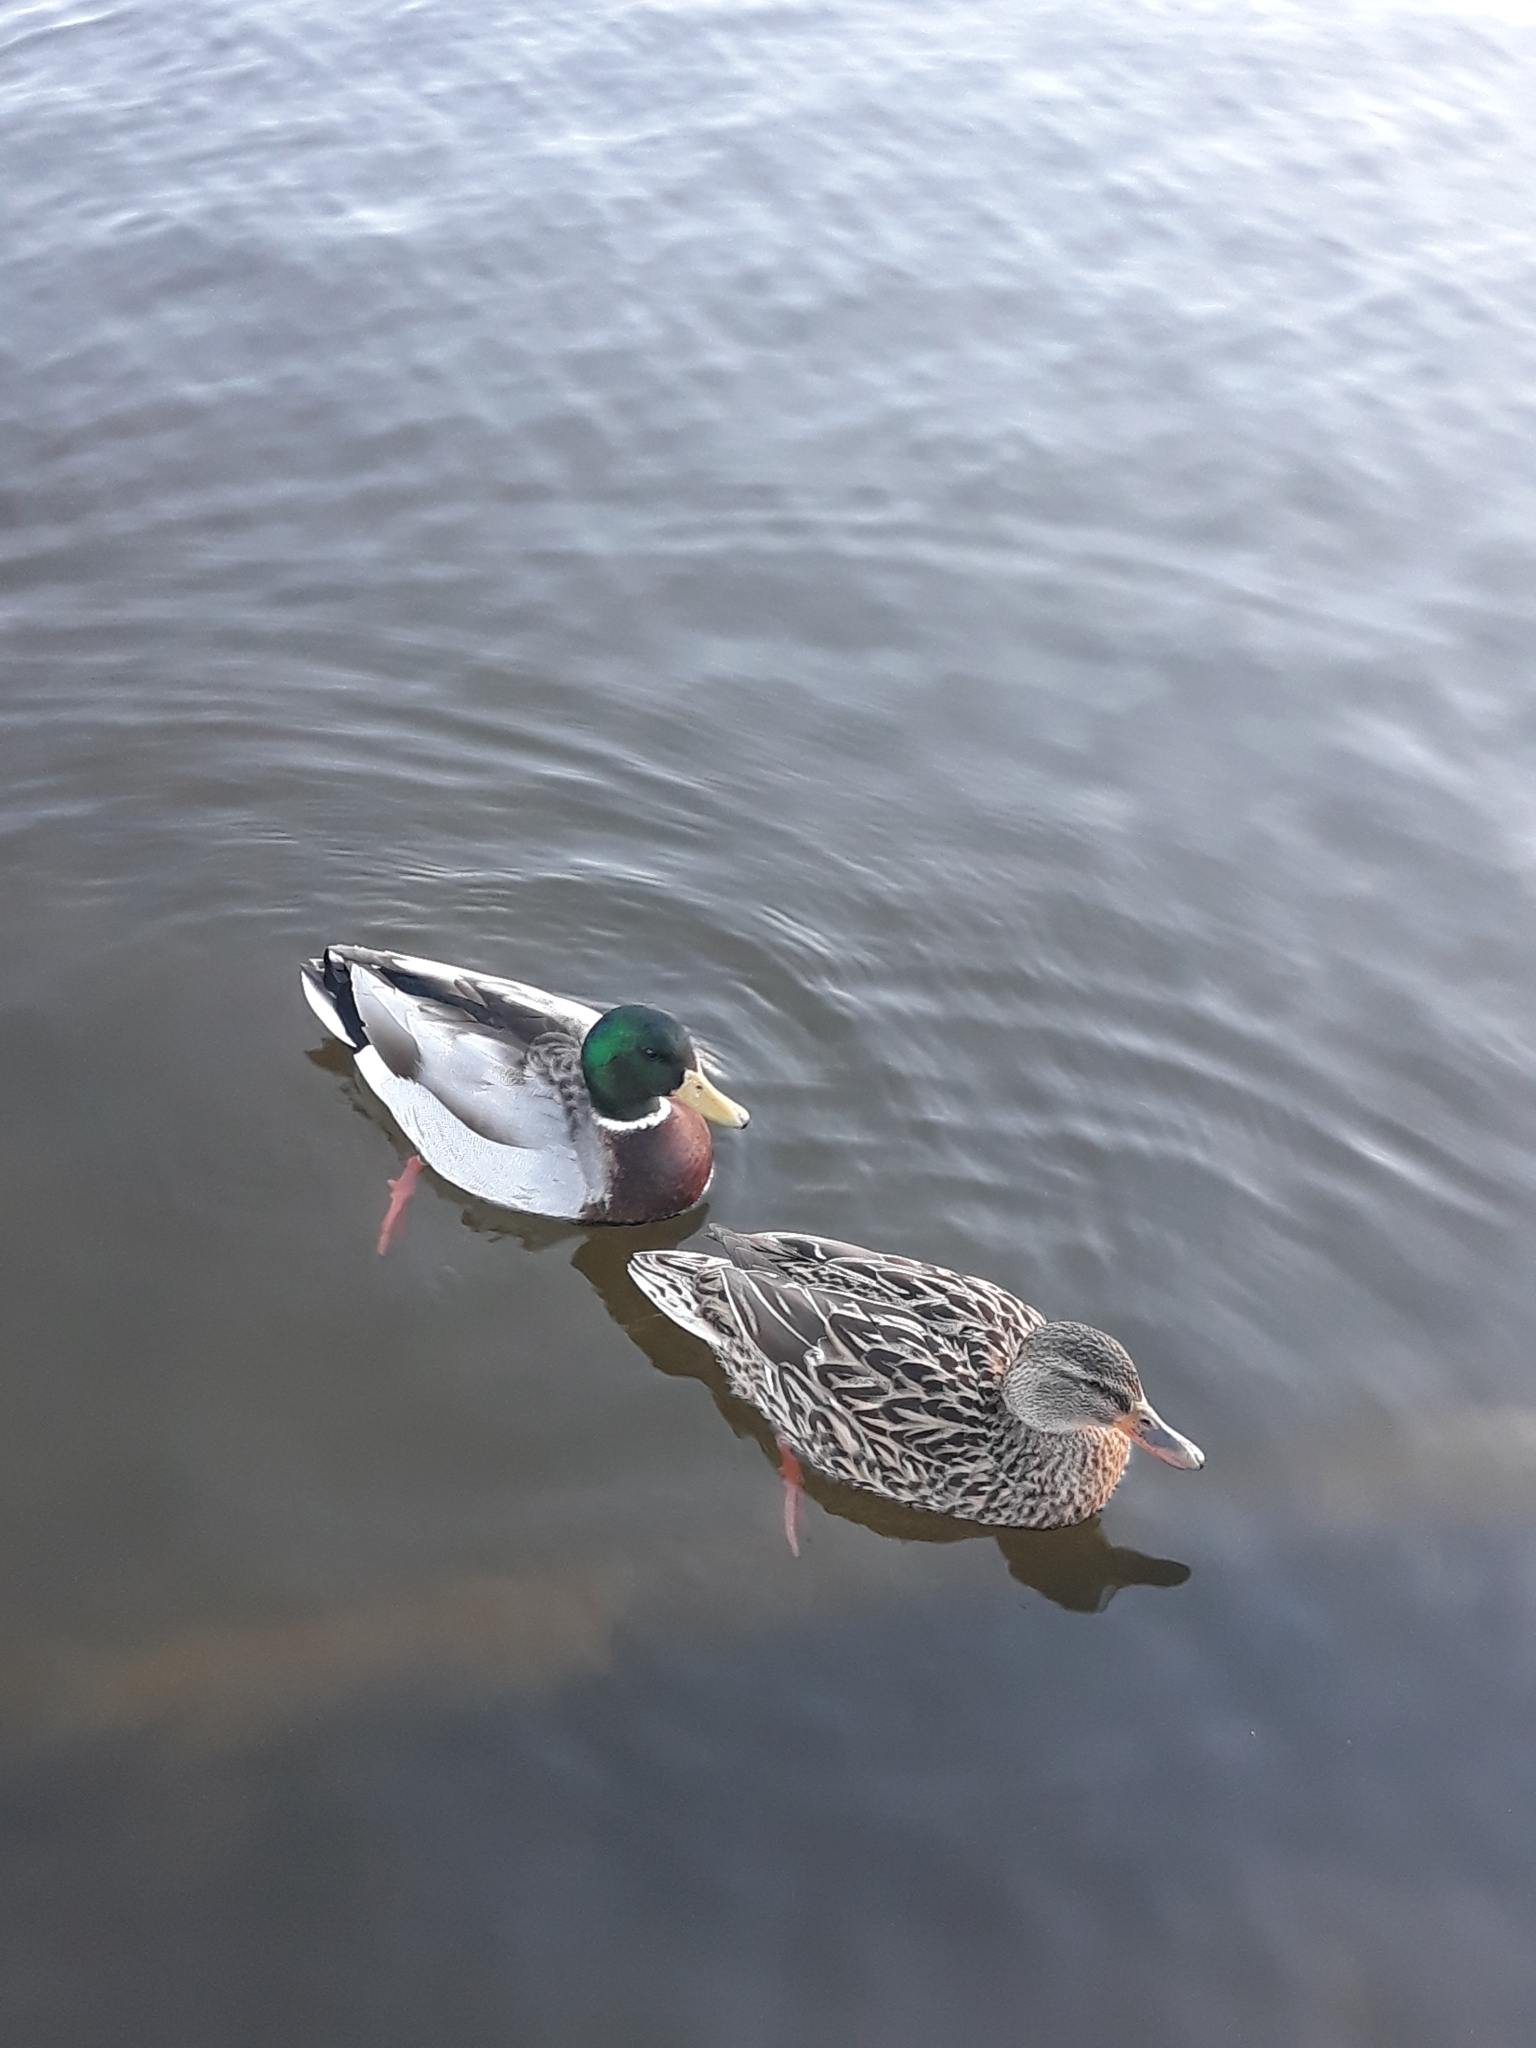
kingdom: Animalia
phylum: Chordata
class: Aves
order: Anseriformes
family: Anatidae
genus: Anas
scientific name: Anas platyrhynchos
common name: Mallard
